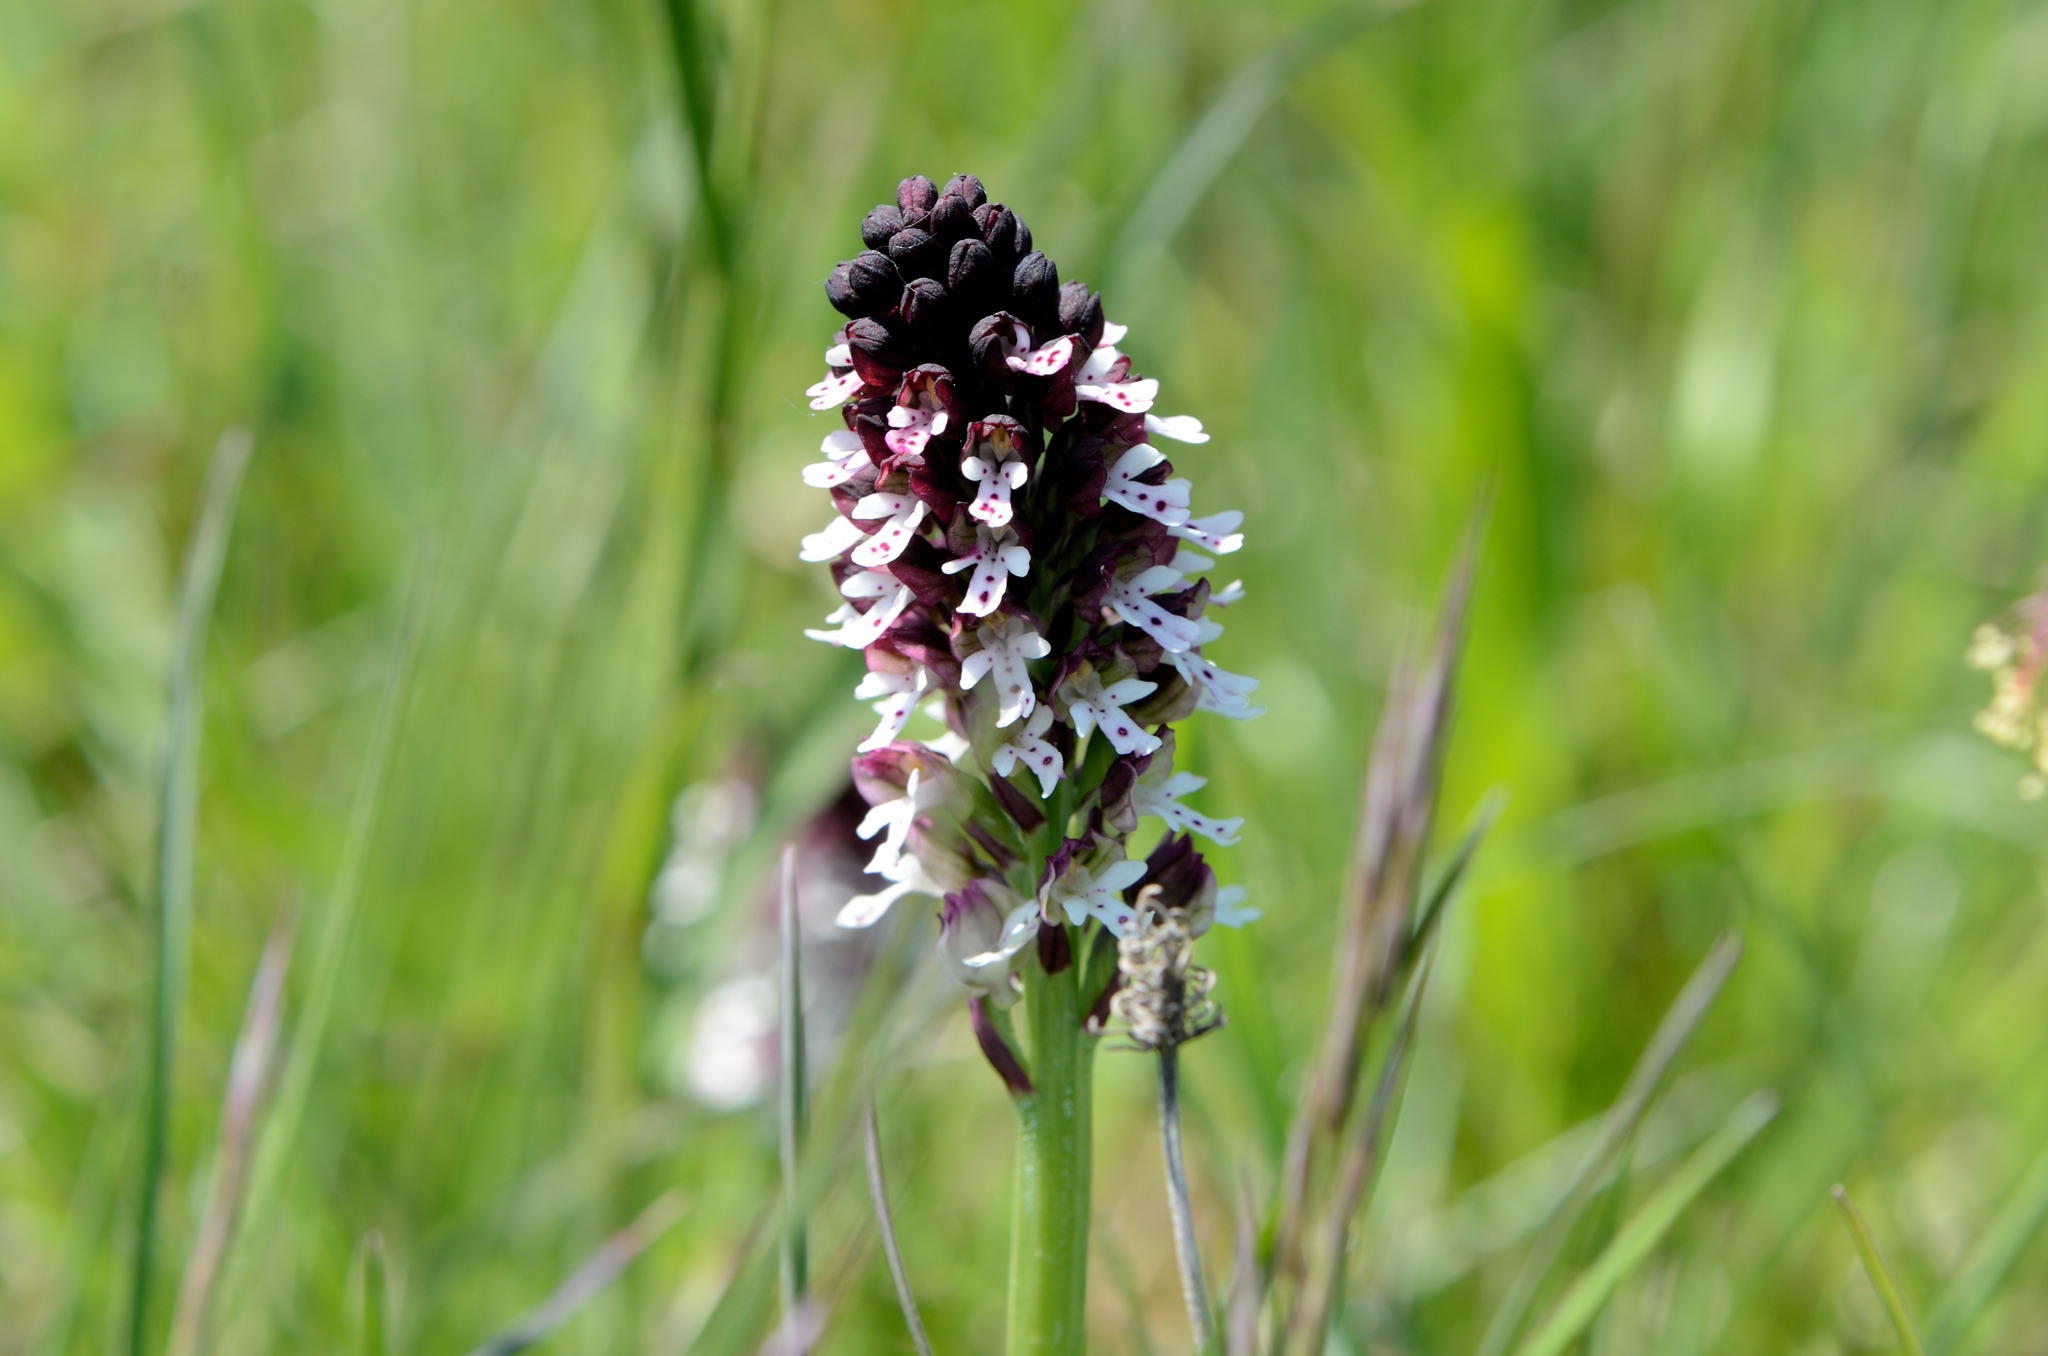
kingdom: Plantae
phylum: Tracheophyta
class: Liliopsida
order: Asparagales
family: Orchidaceae
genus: Neotinea
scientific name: Neotinea ustulata
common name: Burnt orchid
